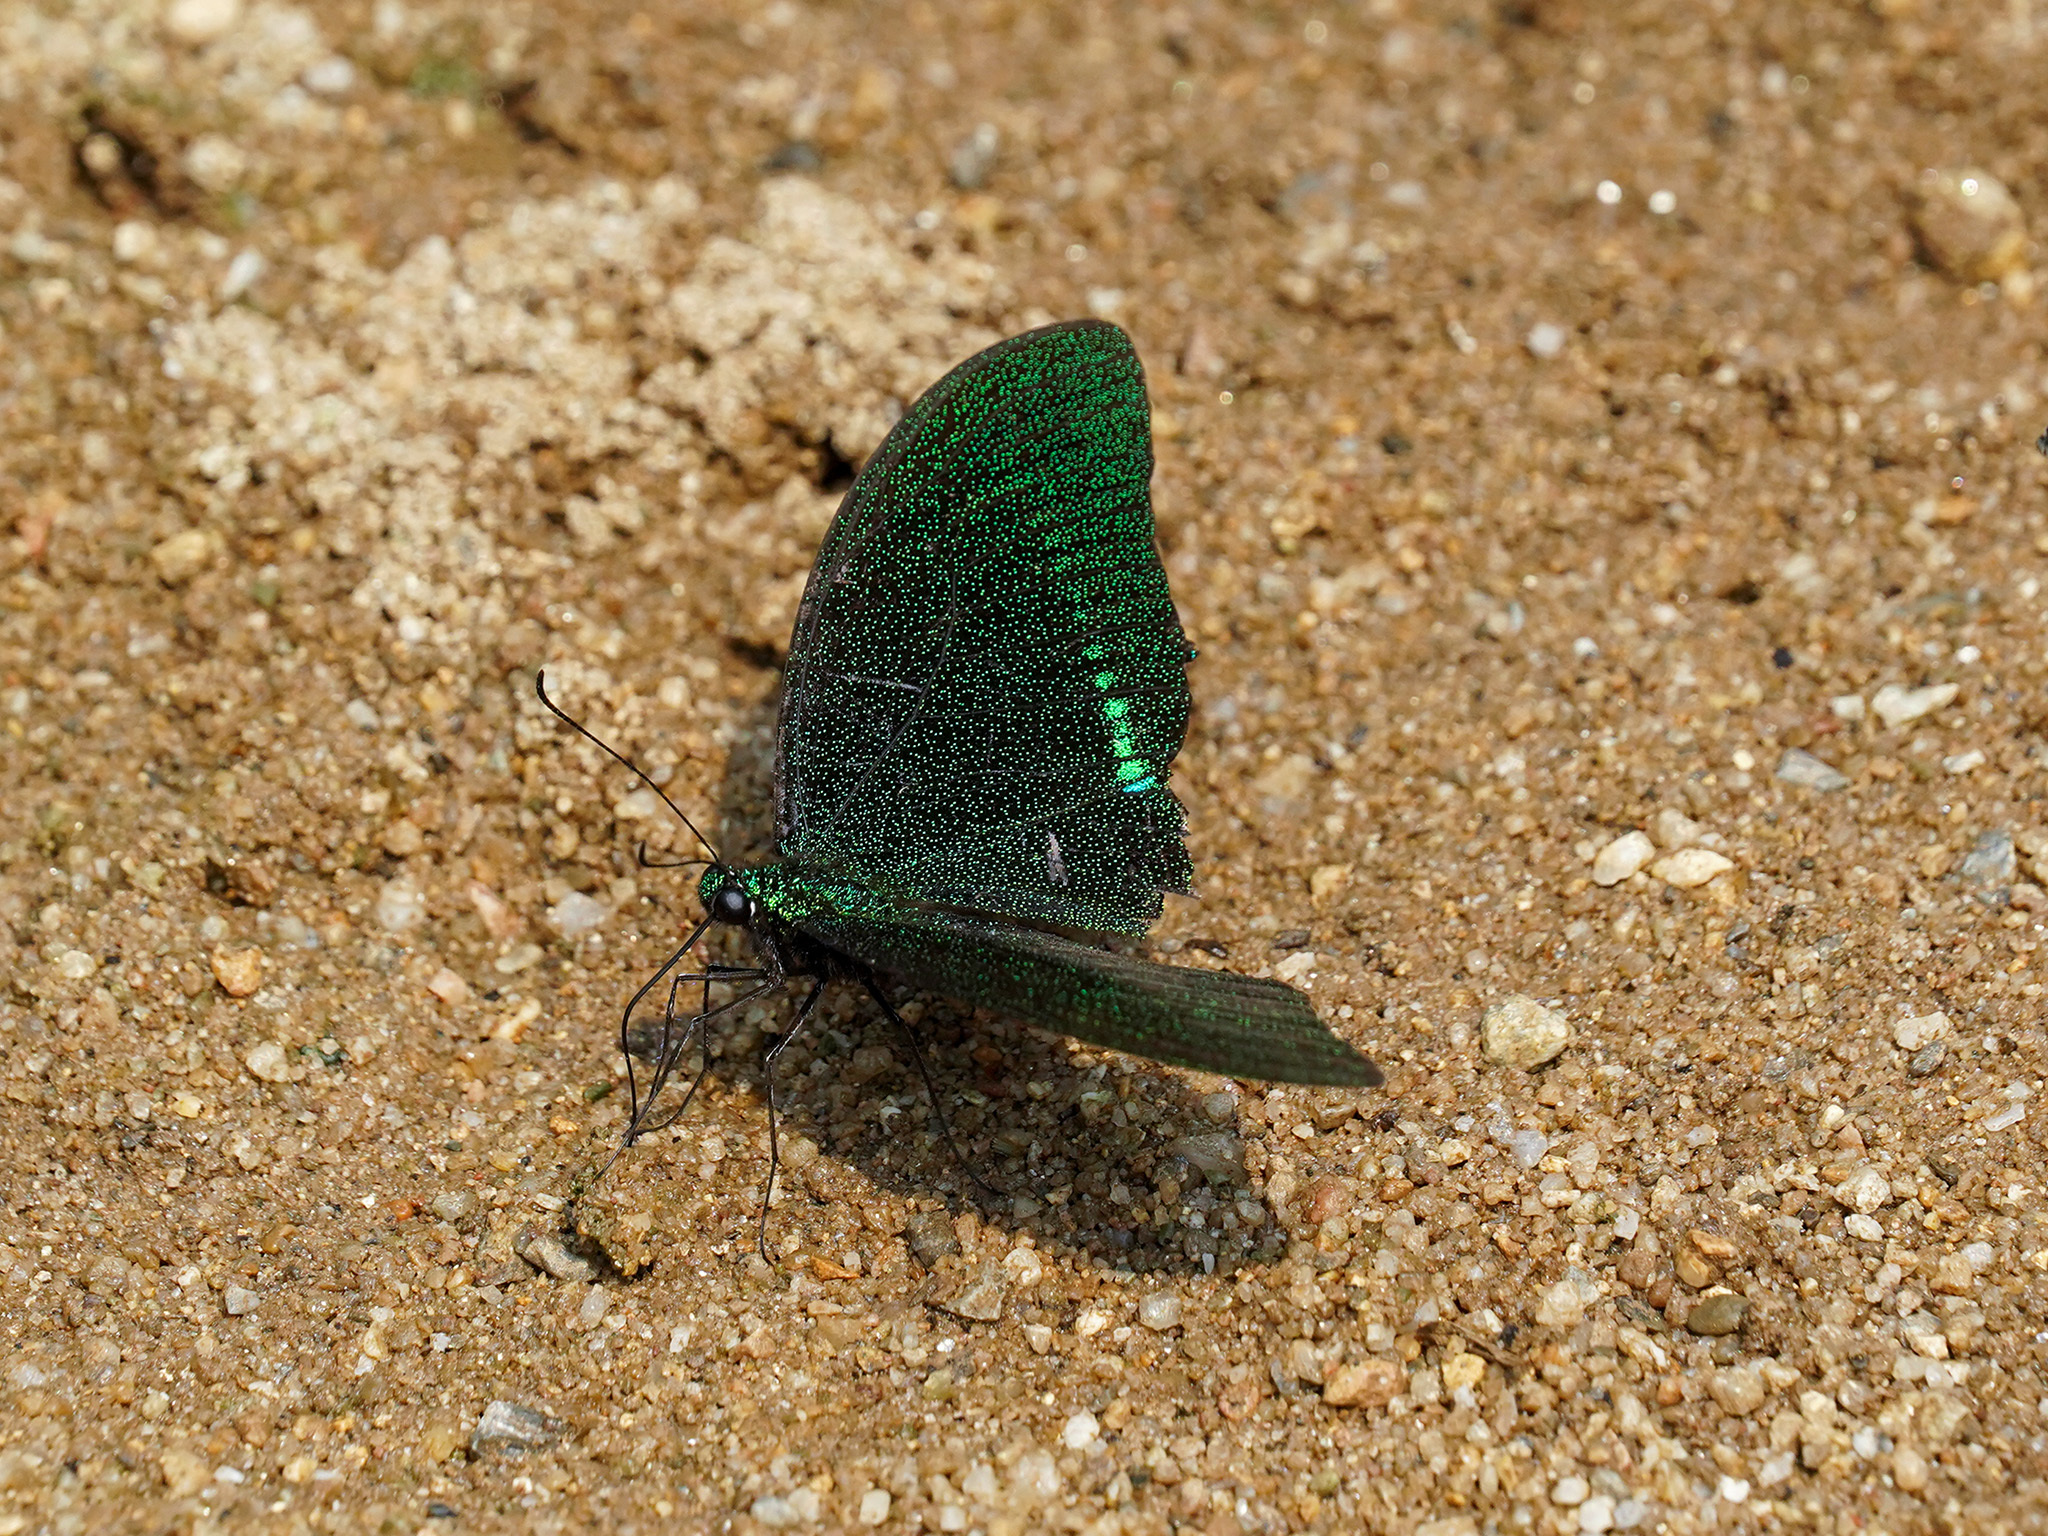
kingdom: Animalia
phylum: Arthropoda
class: Insecta
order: Lepidoptera
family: Papilionidae
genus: Papilio
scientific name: Papilio paris
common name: Paris peacock
